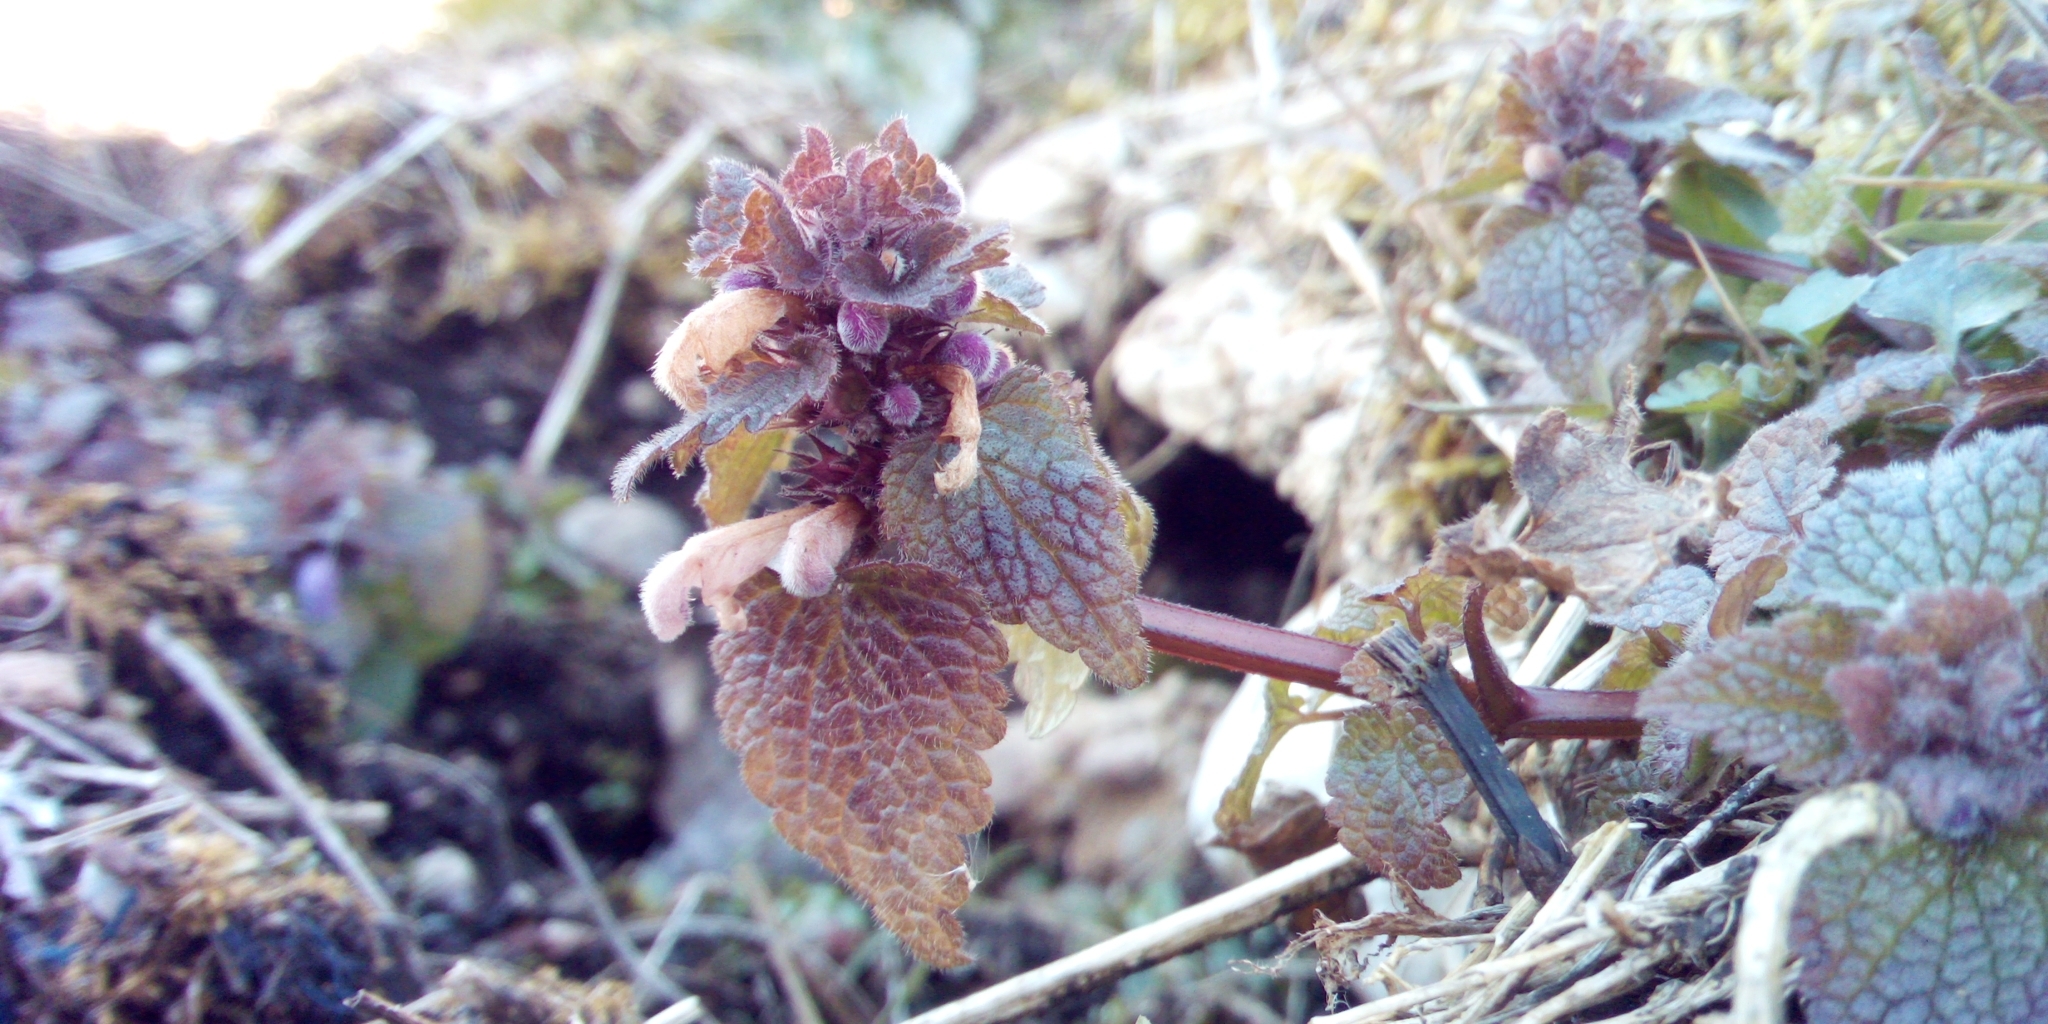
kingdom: Plantae
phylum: Tracheophyta
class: Magnoliopsida
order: Lamiales
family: Lamiaceae
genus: Lamium
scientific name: Lamium purpureum
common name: Red dead-nettle
